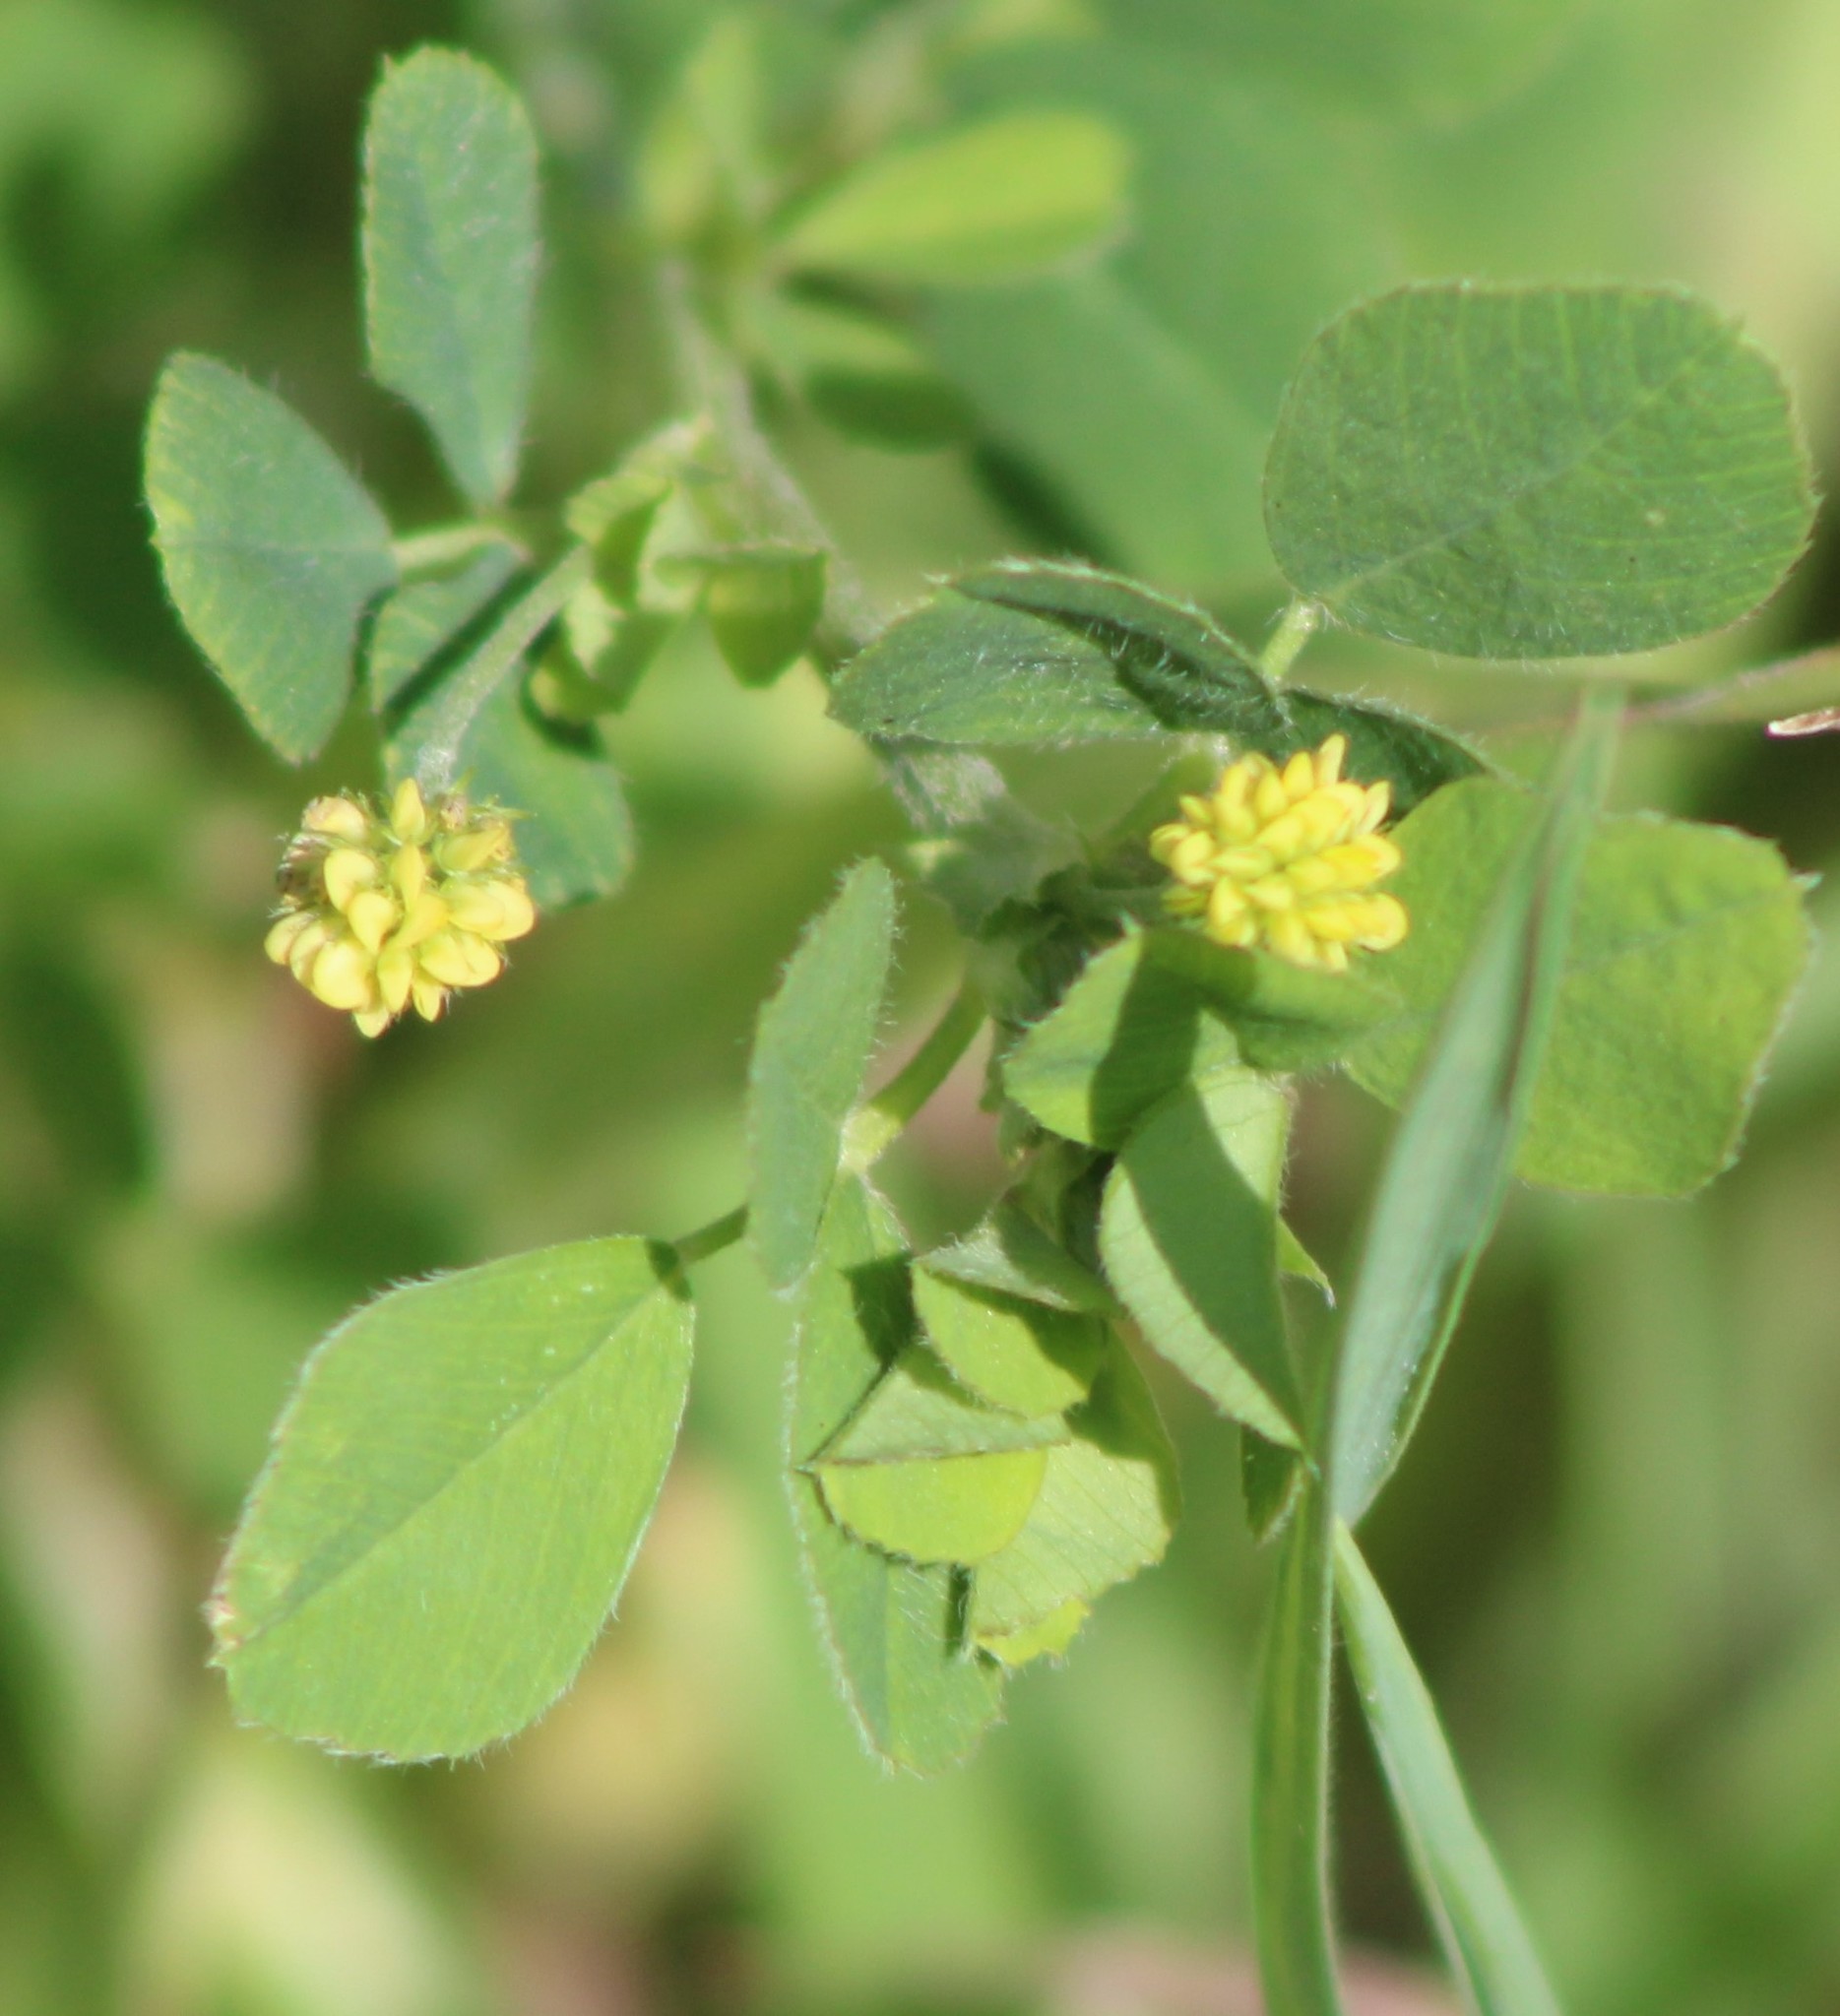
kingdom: Plantae
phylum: Tracheophyta
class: Magnoliopsida
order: Fabales
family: Fabaceae
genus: Trifolium
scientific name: Trifolium campestre
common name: Field clover
